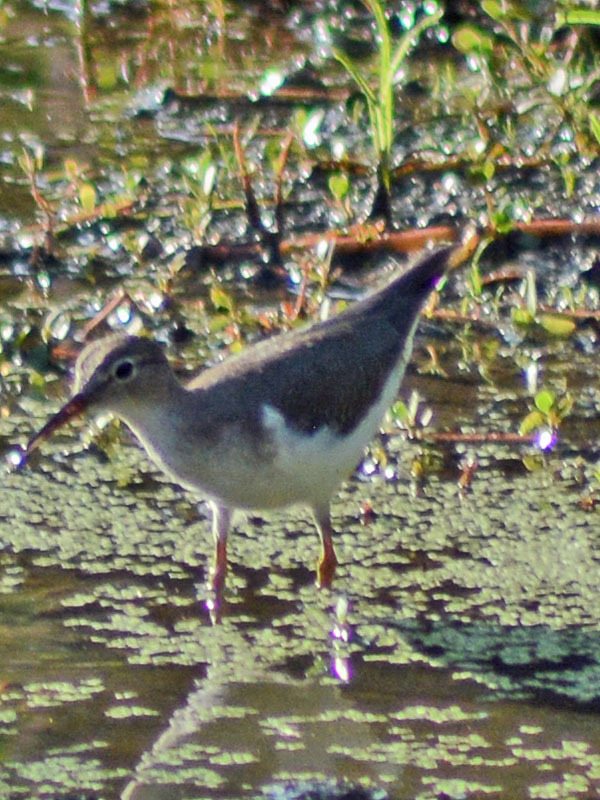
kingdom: Animalia
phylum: Chordata
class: Aves
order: Charadriiformes
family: Scolopacidae
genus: Actitis
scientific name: Actitis macularius
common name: Spotted sandpiper
